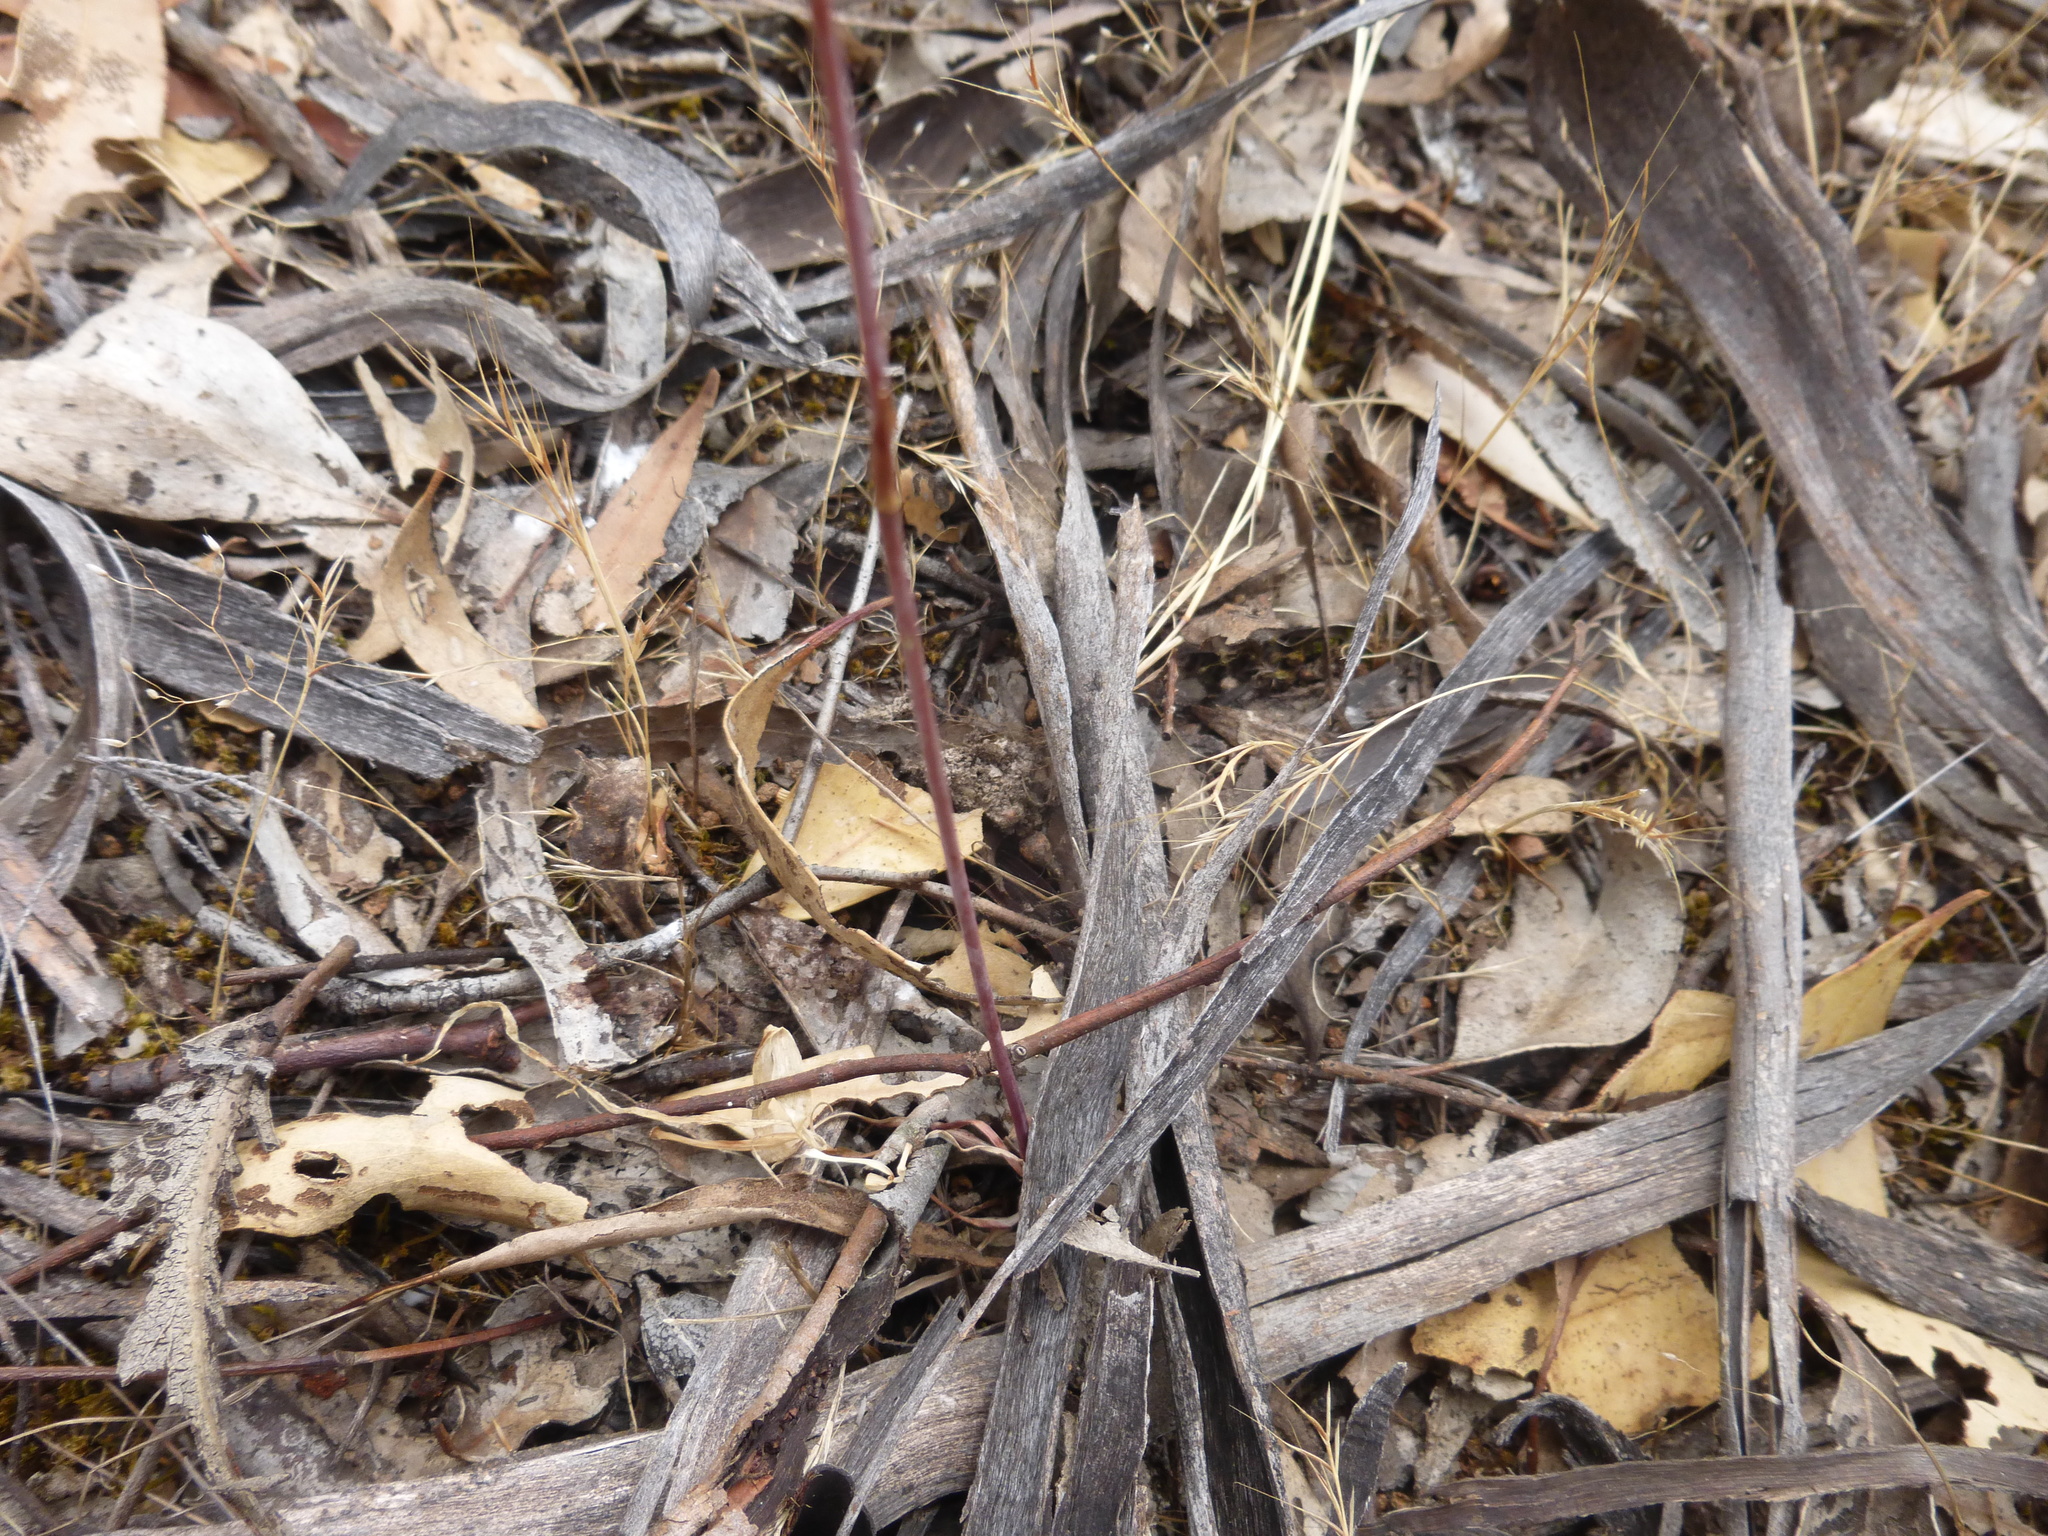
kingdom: Plantae
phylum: Tracheophyta
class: Liliopsida
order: Asparagales
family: Asparagaceae
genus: Dichopogon
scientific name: Dichopogon fimbriatus
